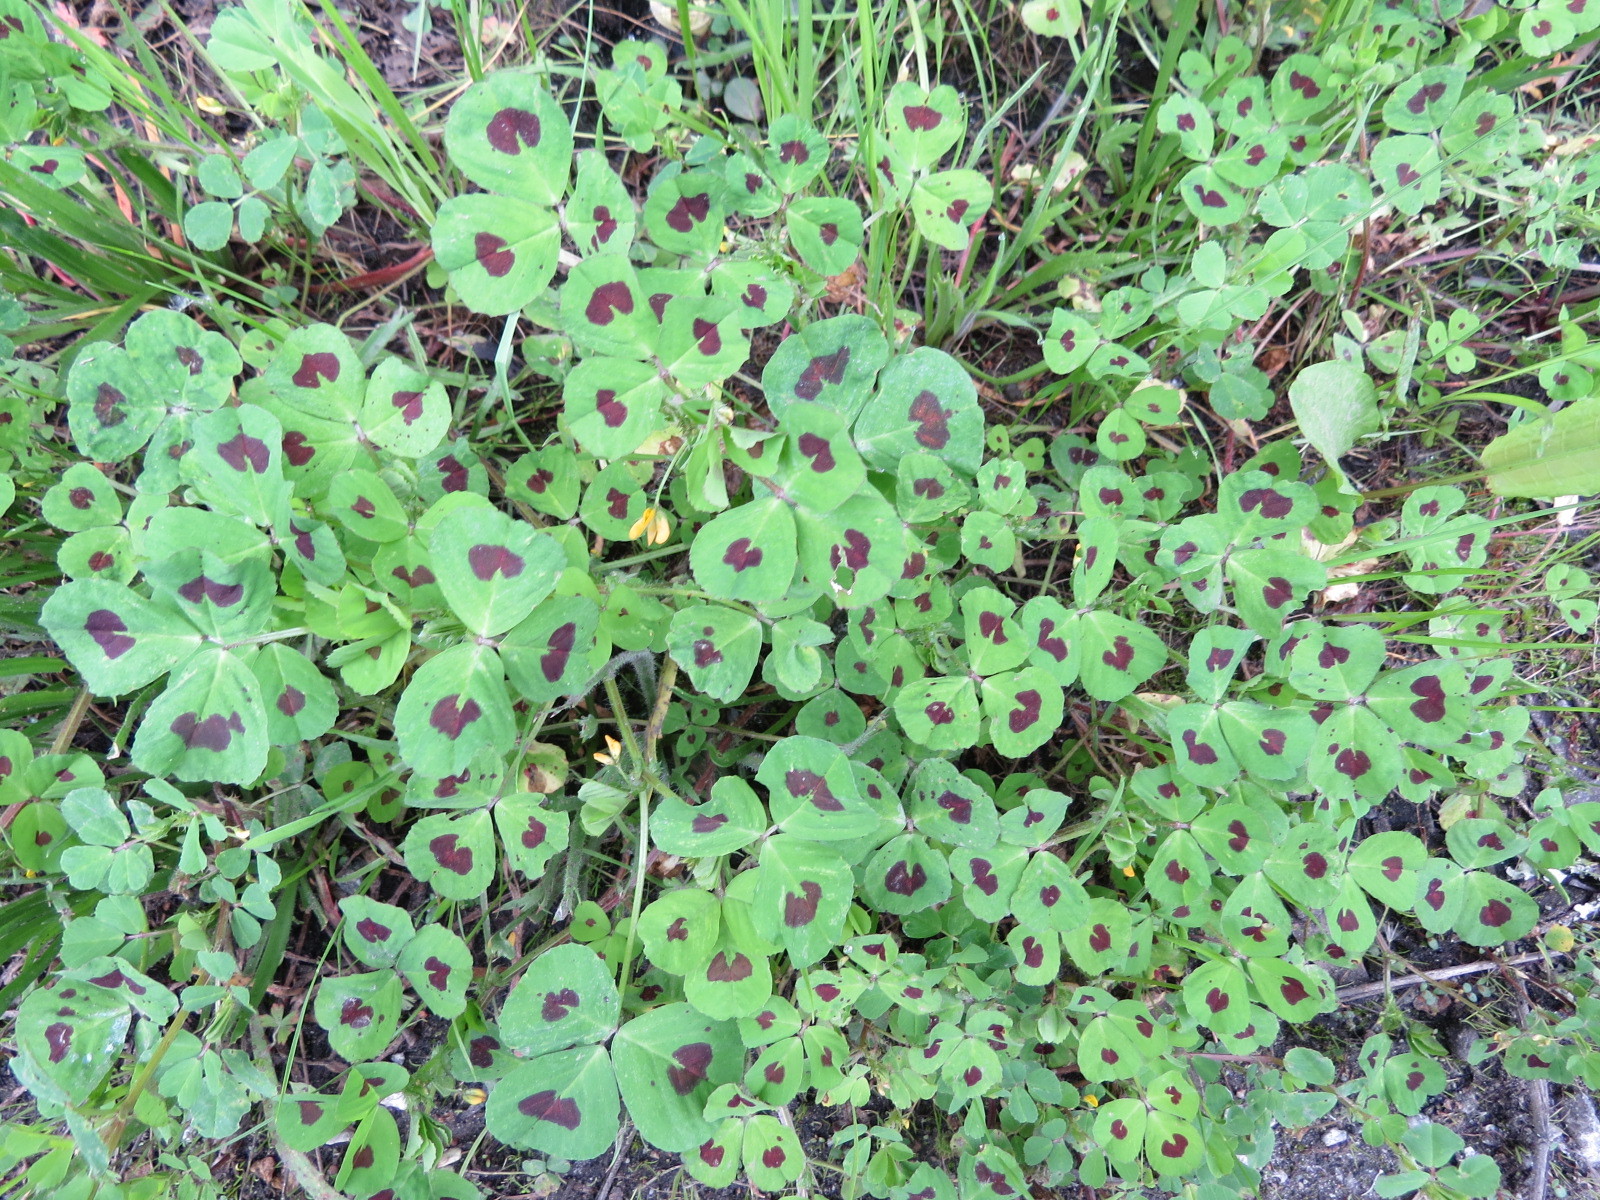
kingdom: Plantae
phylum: Tracheophyta
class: Magnoliopsida
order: Fabales
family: Fabaceae
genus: Medicago
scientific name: Medicago arabica
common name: Spotted medick
